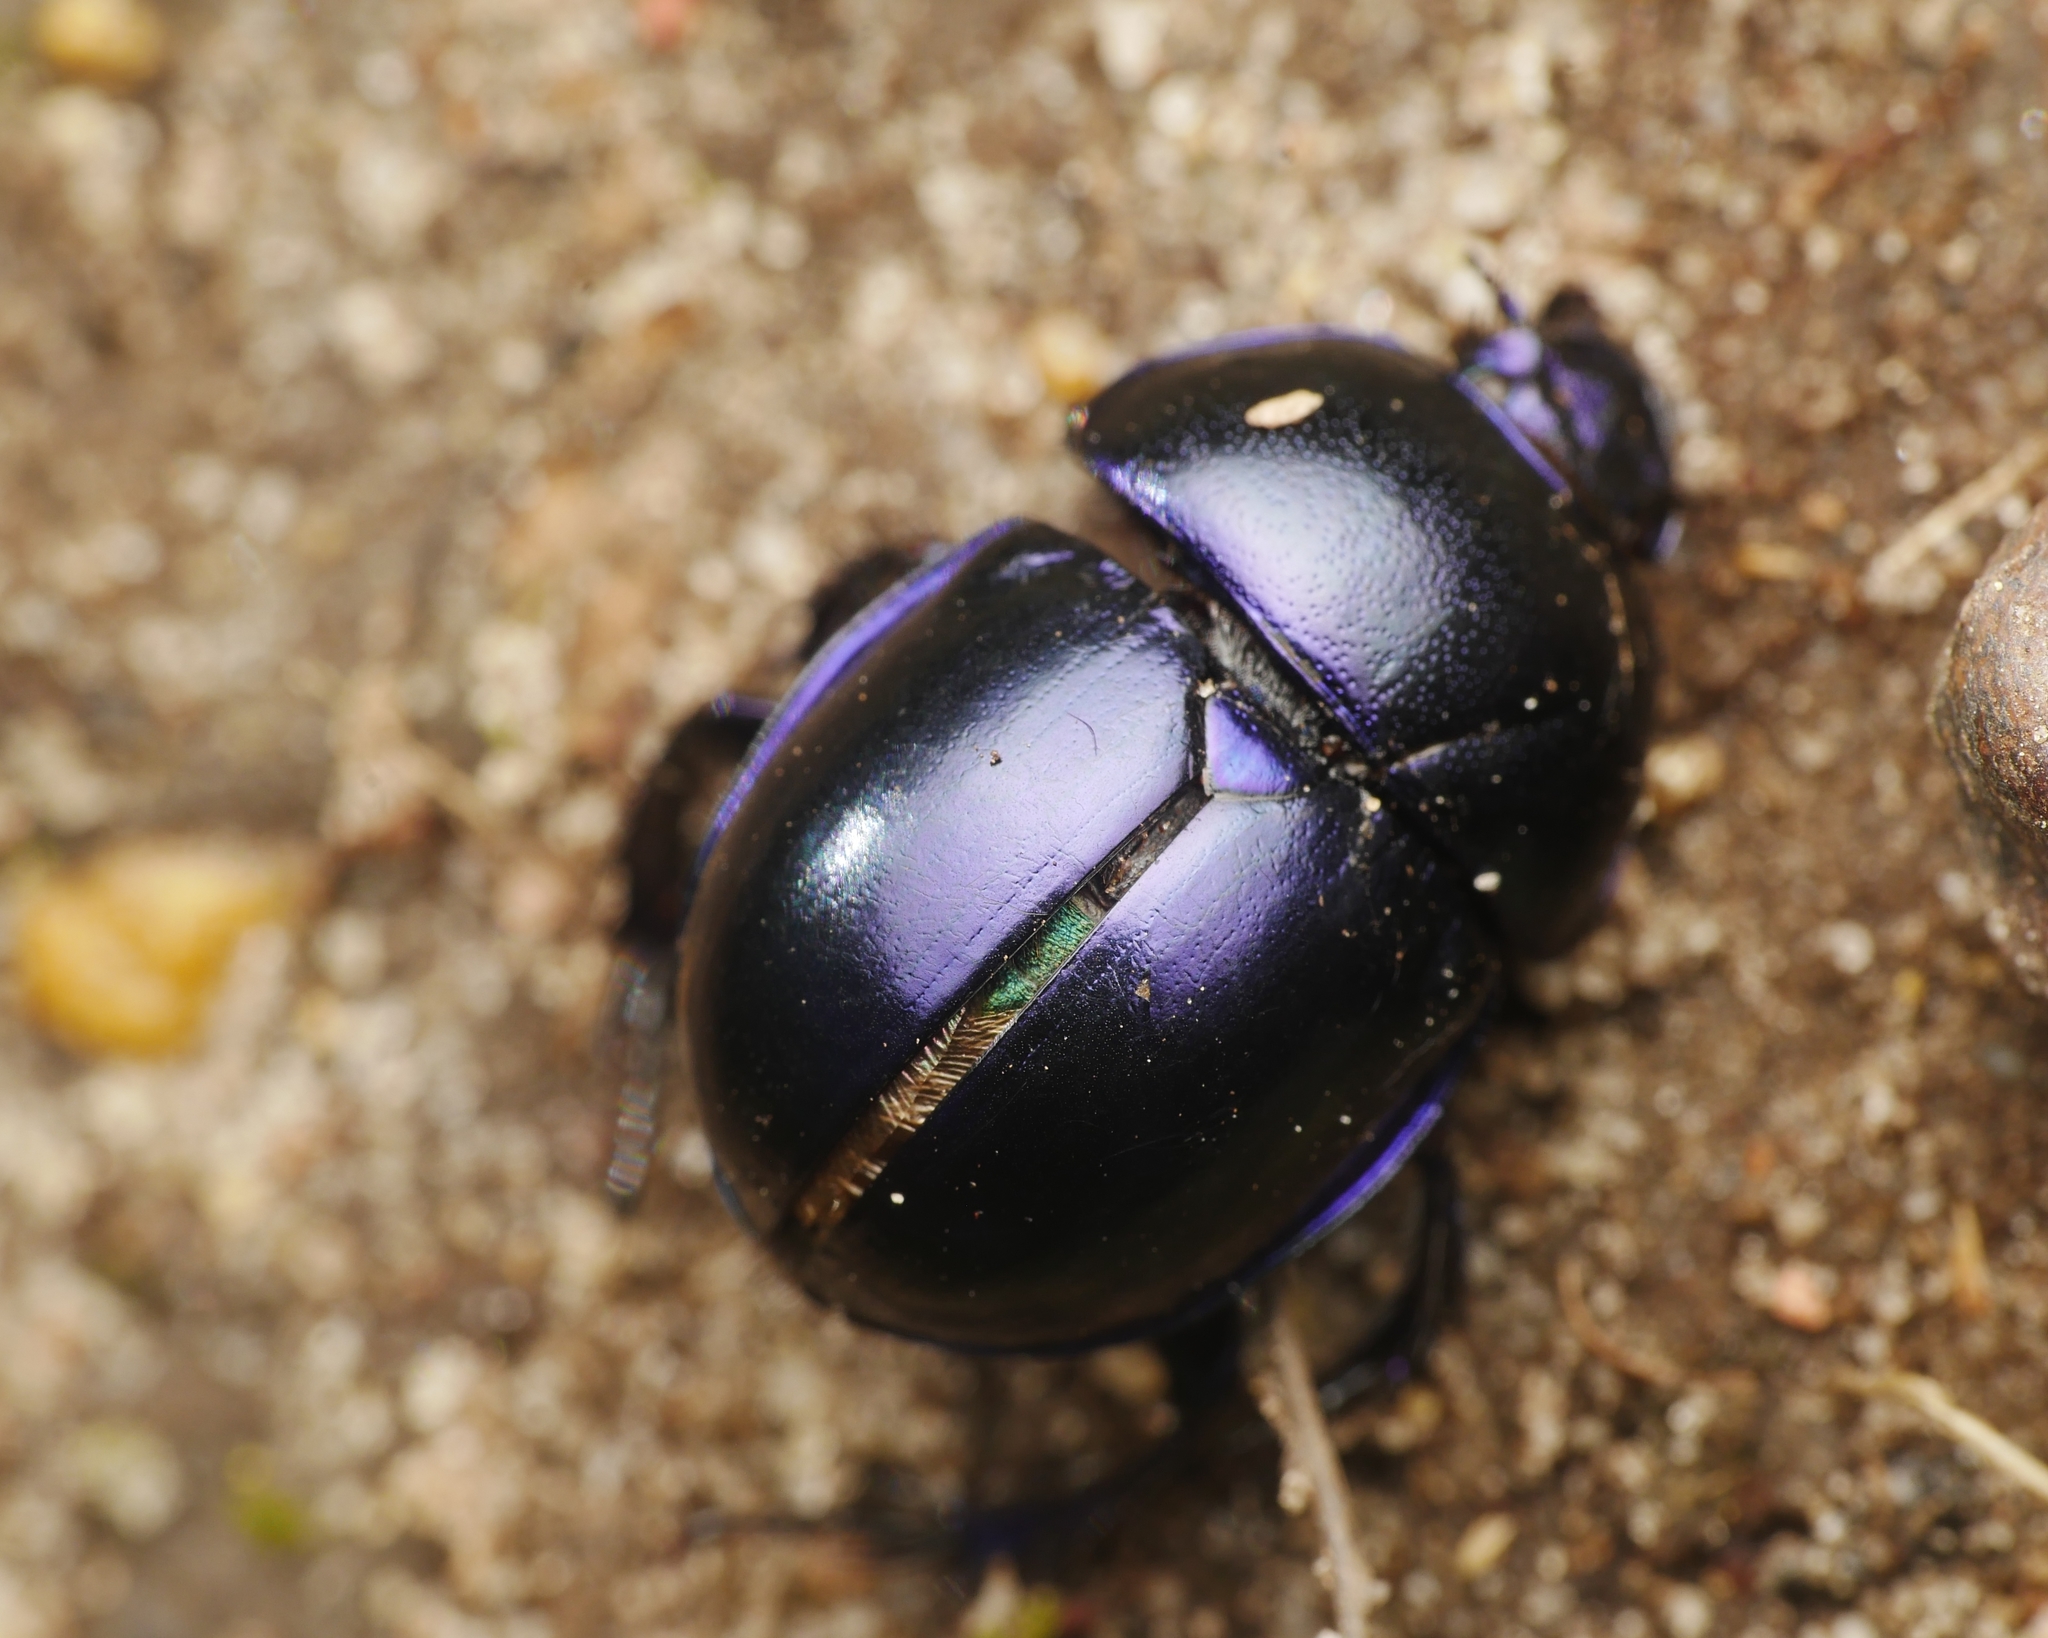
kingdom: Animalia
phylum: Arthropoda
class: Insecta
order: Coleoptera
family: Geotrupidae
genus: Trypocopris
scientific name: Trypocopris vernalis
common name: Spring dumbledor
